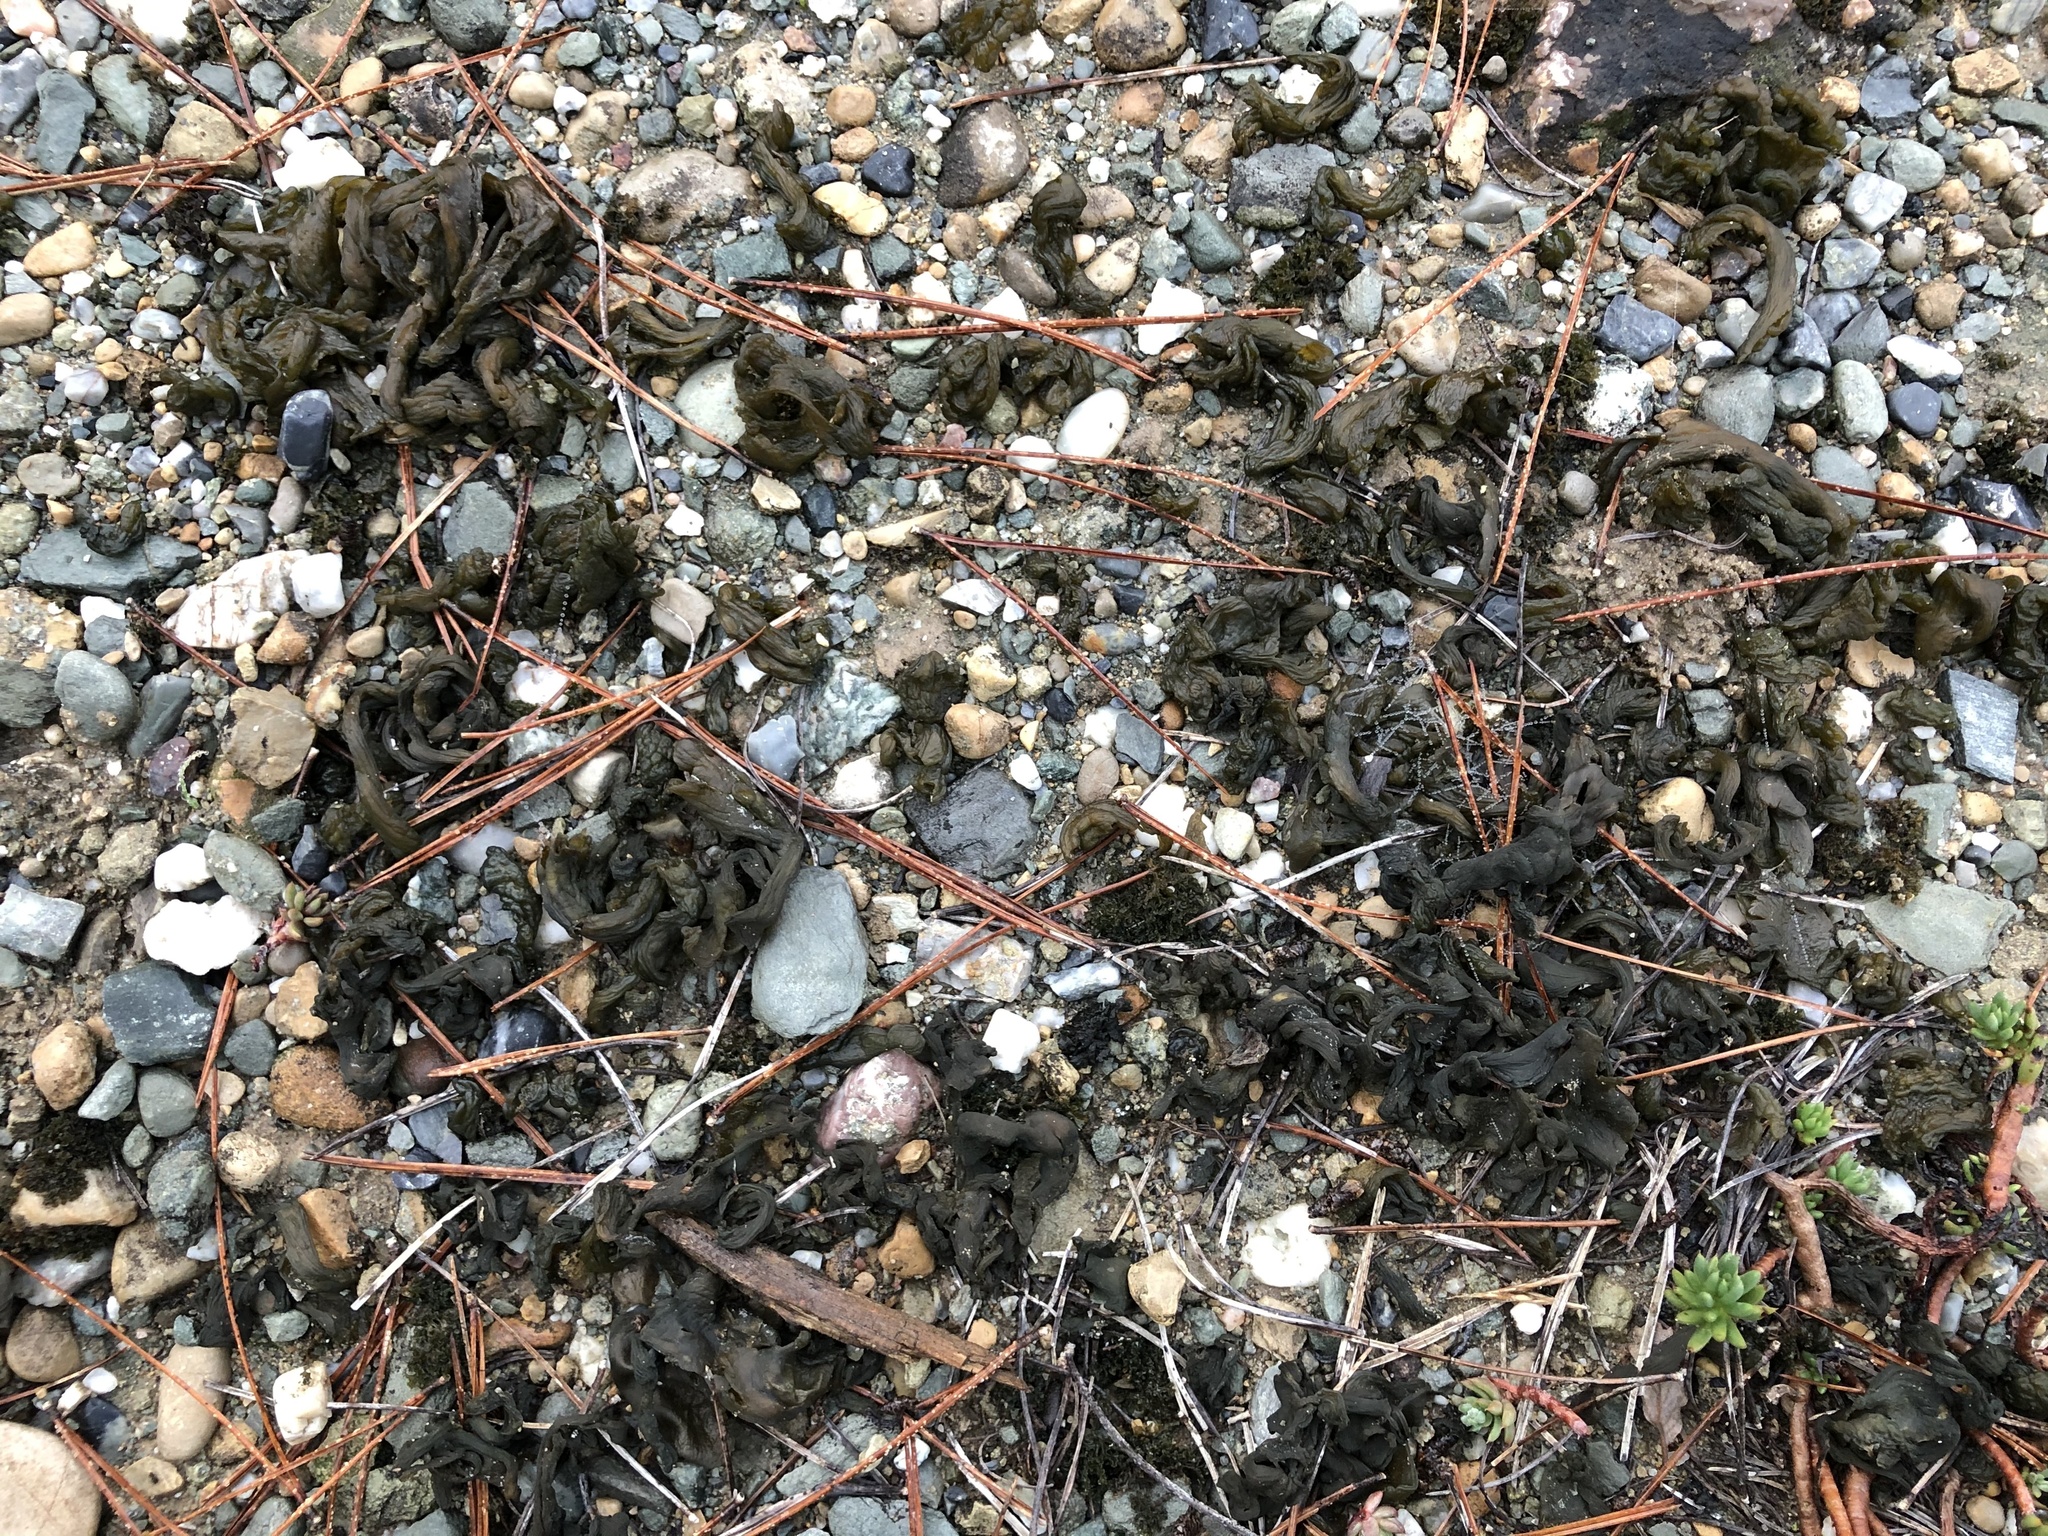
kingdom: Bacteria
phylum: Cyanobacteria
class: Cyanobacteriia
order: Cyanobacteriales
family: Nostocaceae
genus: Nostoc
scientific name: Nostoc commune
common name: Star jelly
